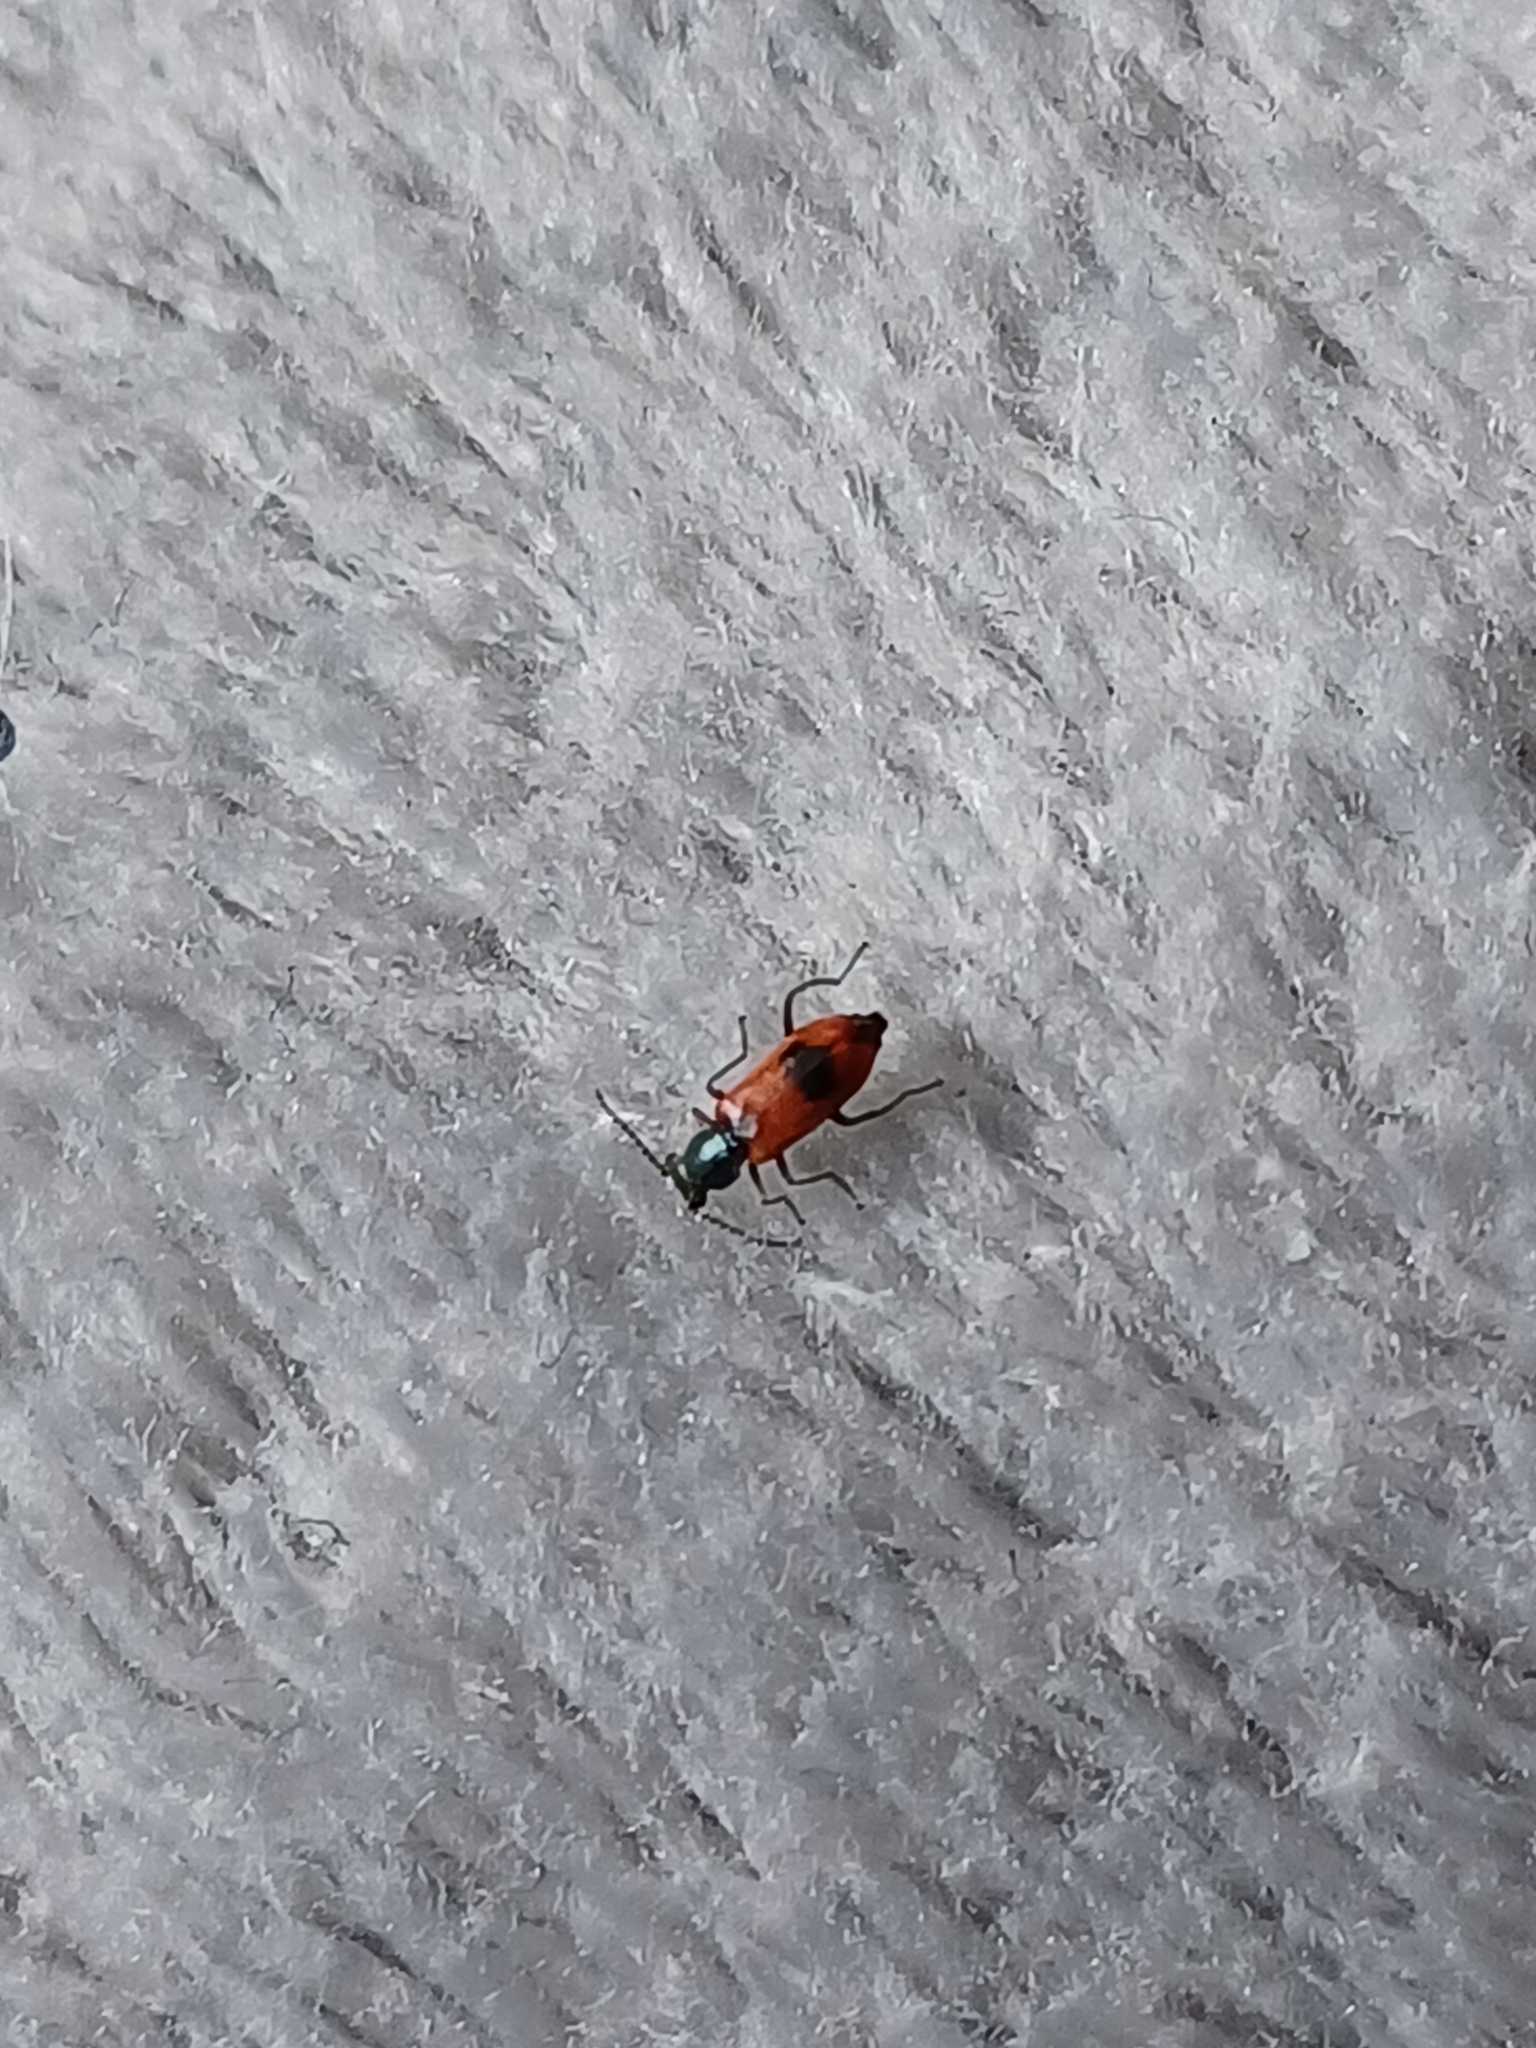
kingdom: Animalia
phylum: Arthropoda
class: Insecta
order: Coleoptera
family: Melyridae
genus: Anthocomus
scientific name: Anthocomus equestris
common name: Black-banded soft-winged flower beetle
